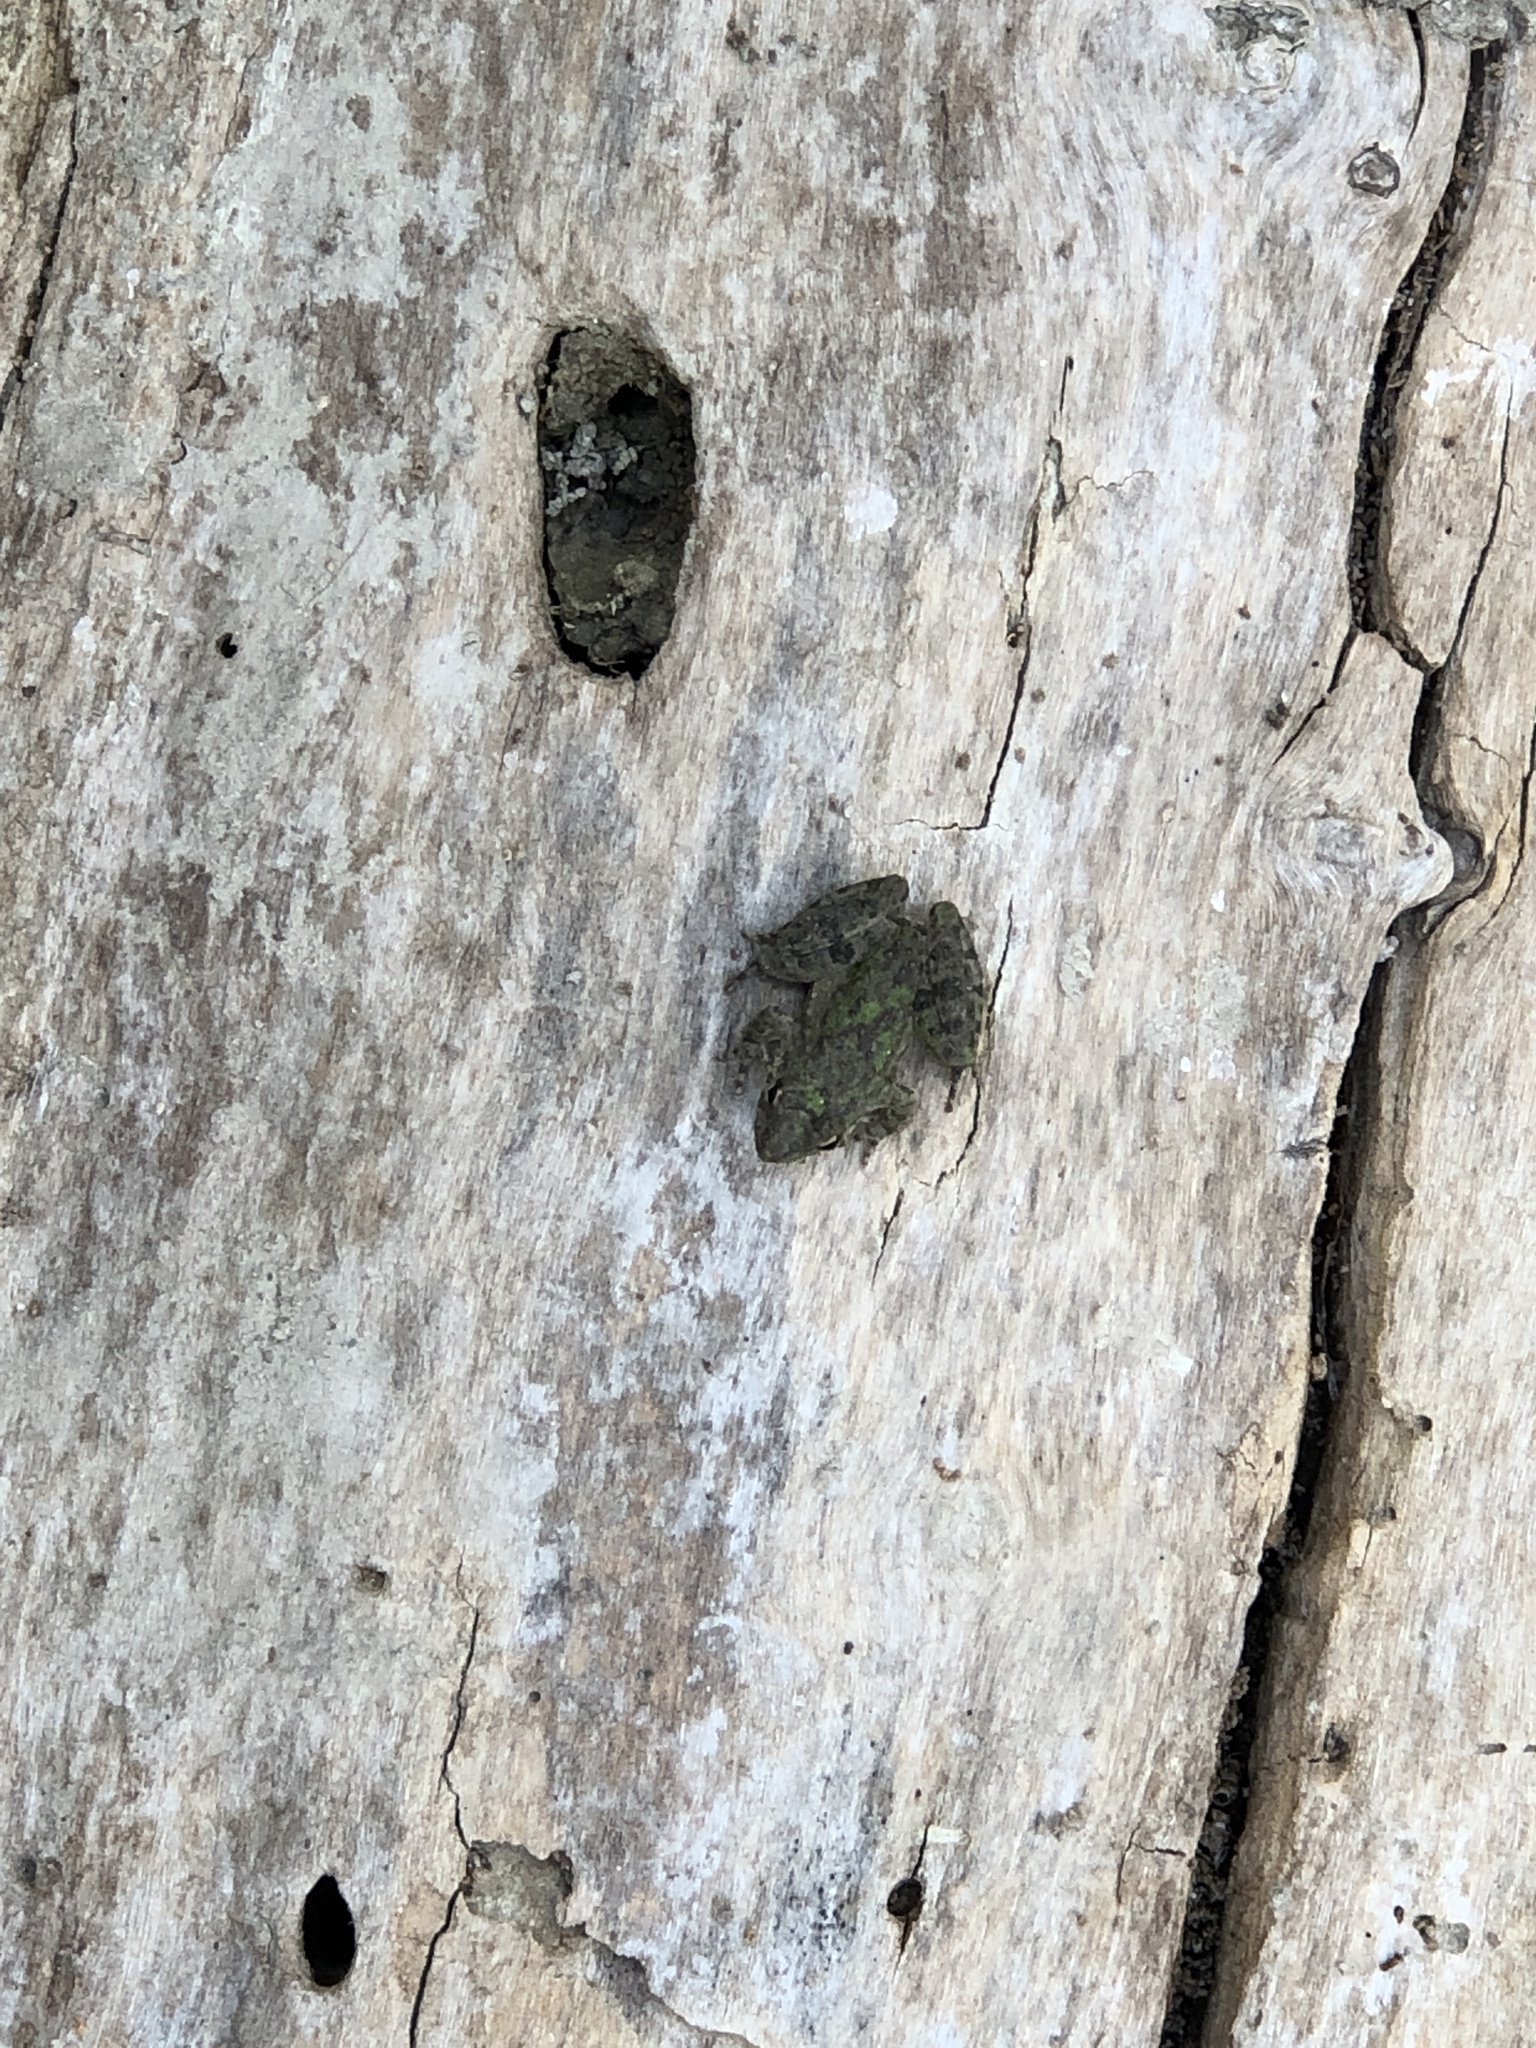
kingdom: Animalia
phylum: Chordata
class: Amphibia
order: Anura
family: Hylidae
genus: Acris
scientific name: Acris blanchardi
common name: Blanchard's cricket frog
